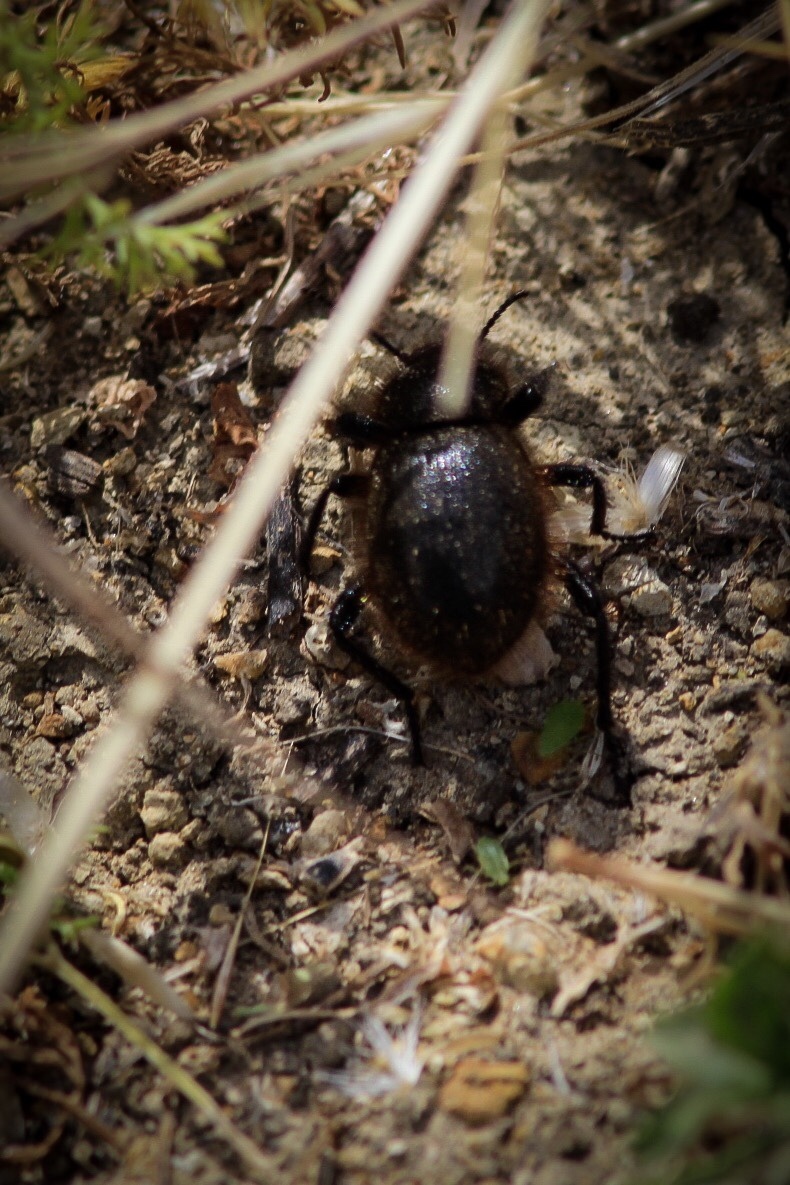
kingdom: Animalia
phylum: Arthropoda
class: Insecta
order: Coleoptera
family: Tenebrionidae
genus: Eleodes
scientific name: Eleodes osculans
